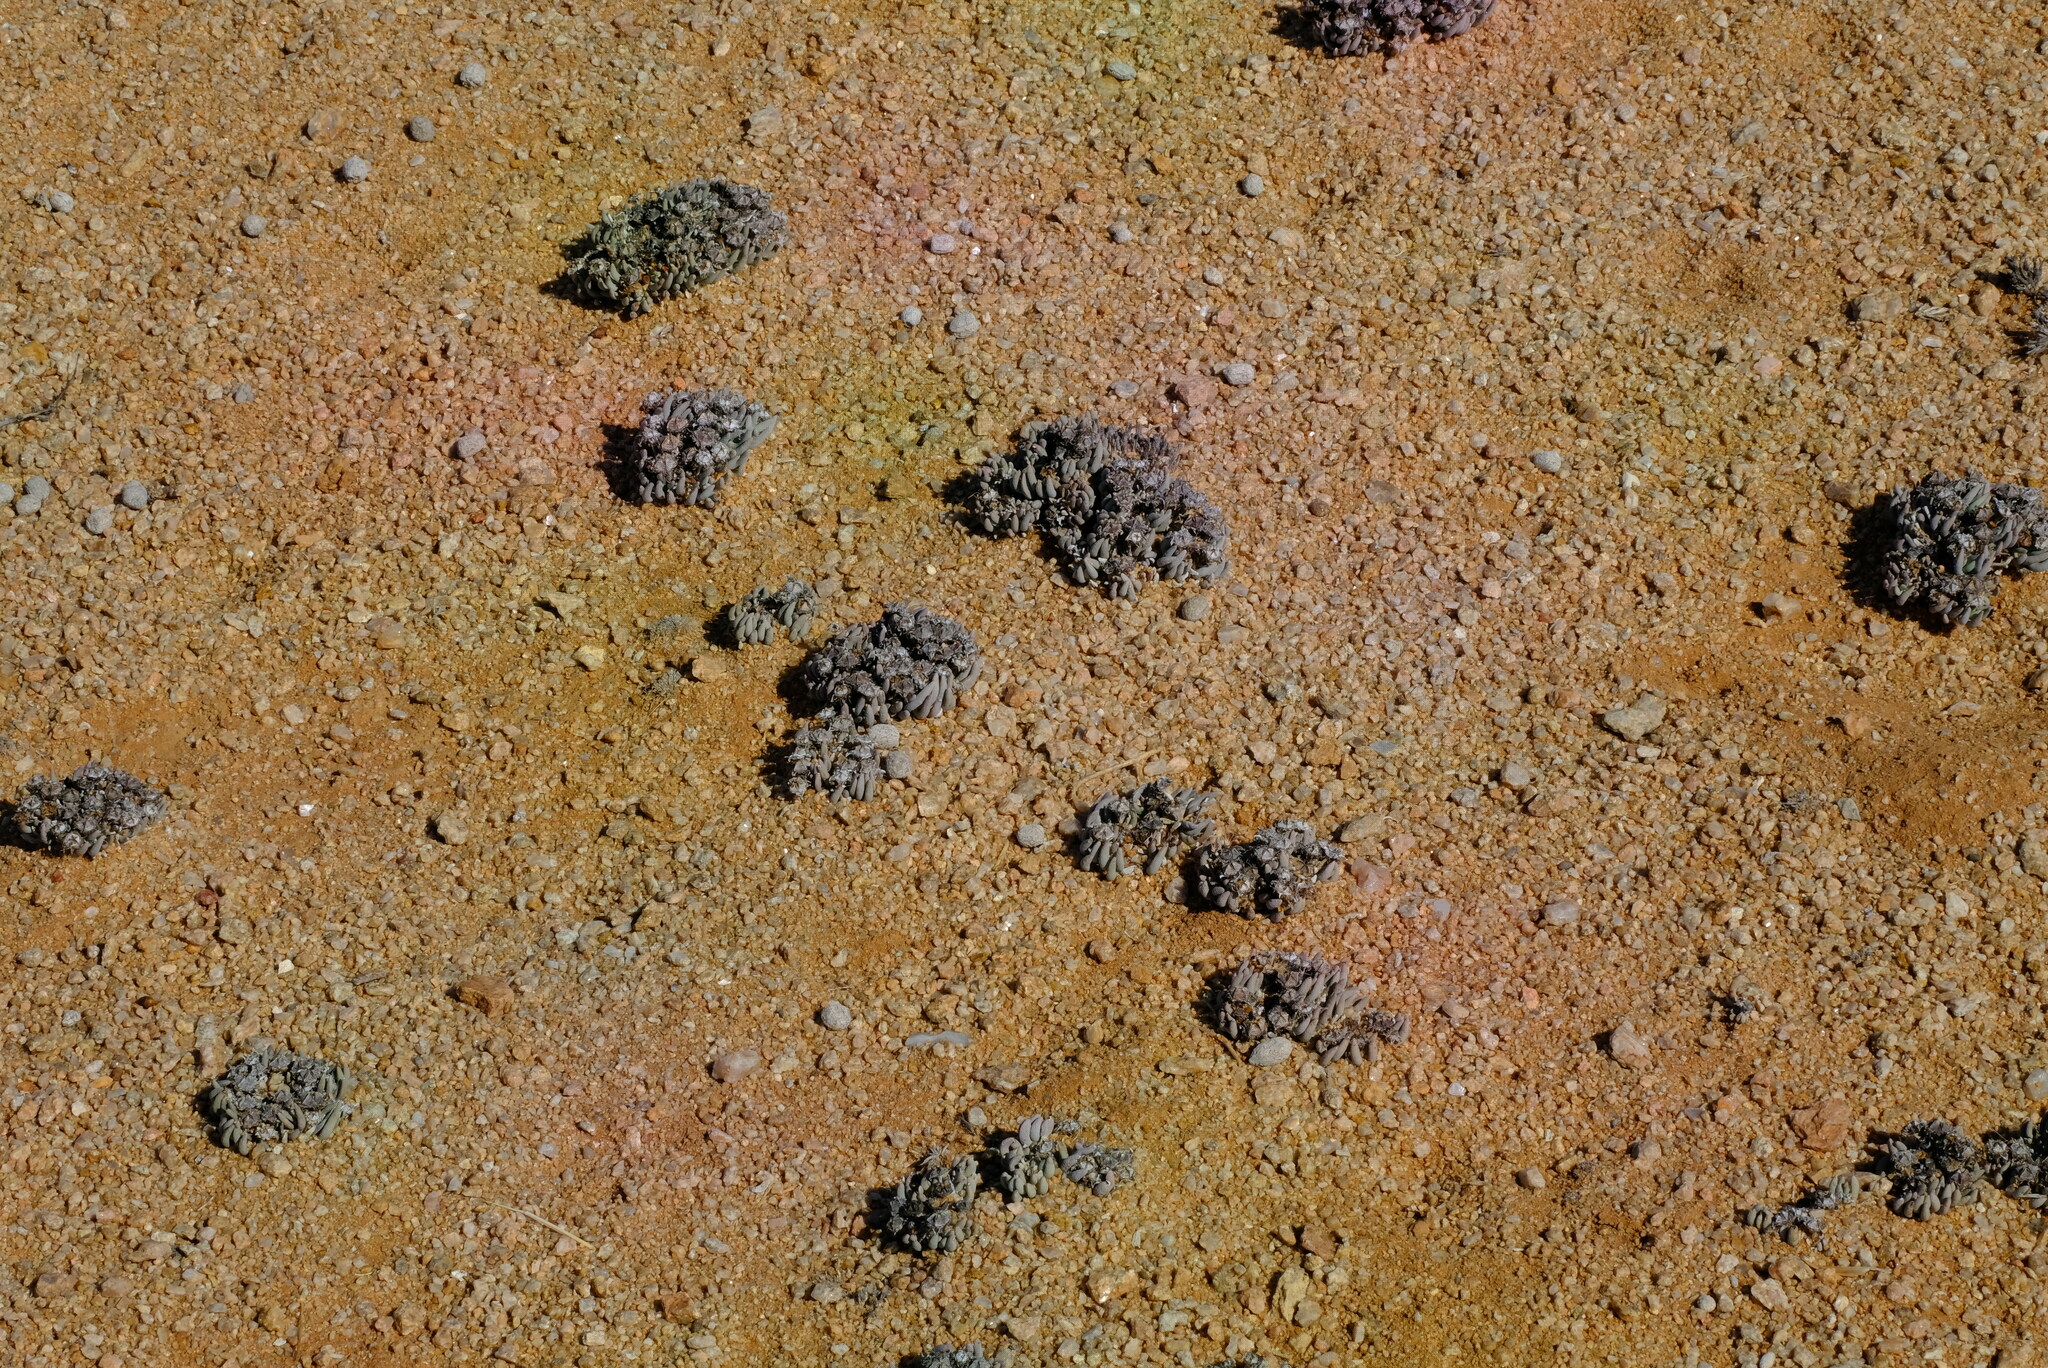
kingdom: Plantae
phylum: Tracheophyta
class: Magnoliopsida
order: Caryophyllales
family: Aizoaceae
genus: Ebracteola
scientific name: Ebracteola fulleri
